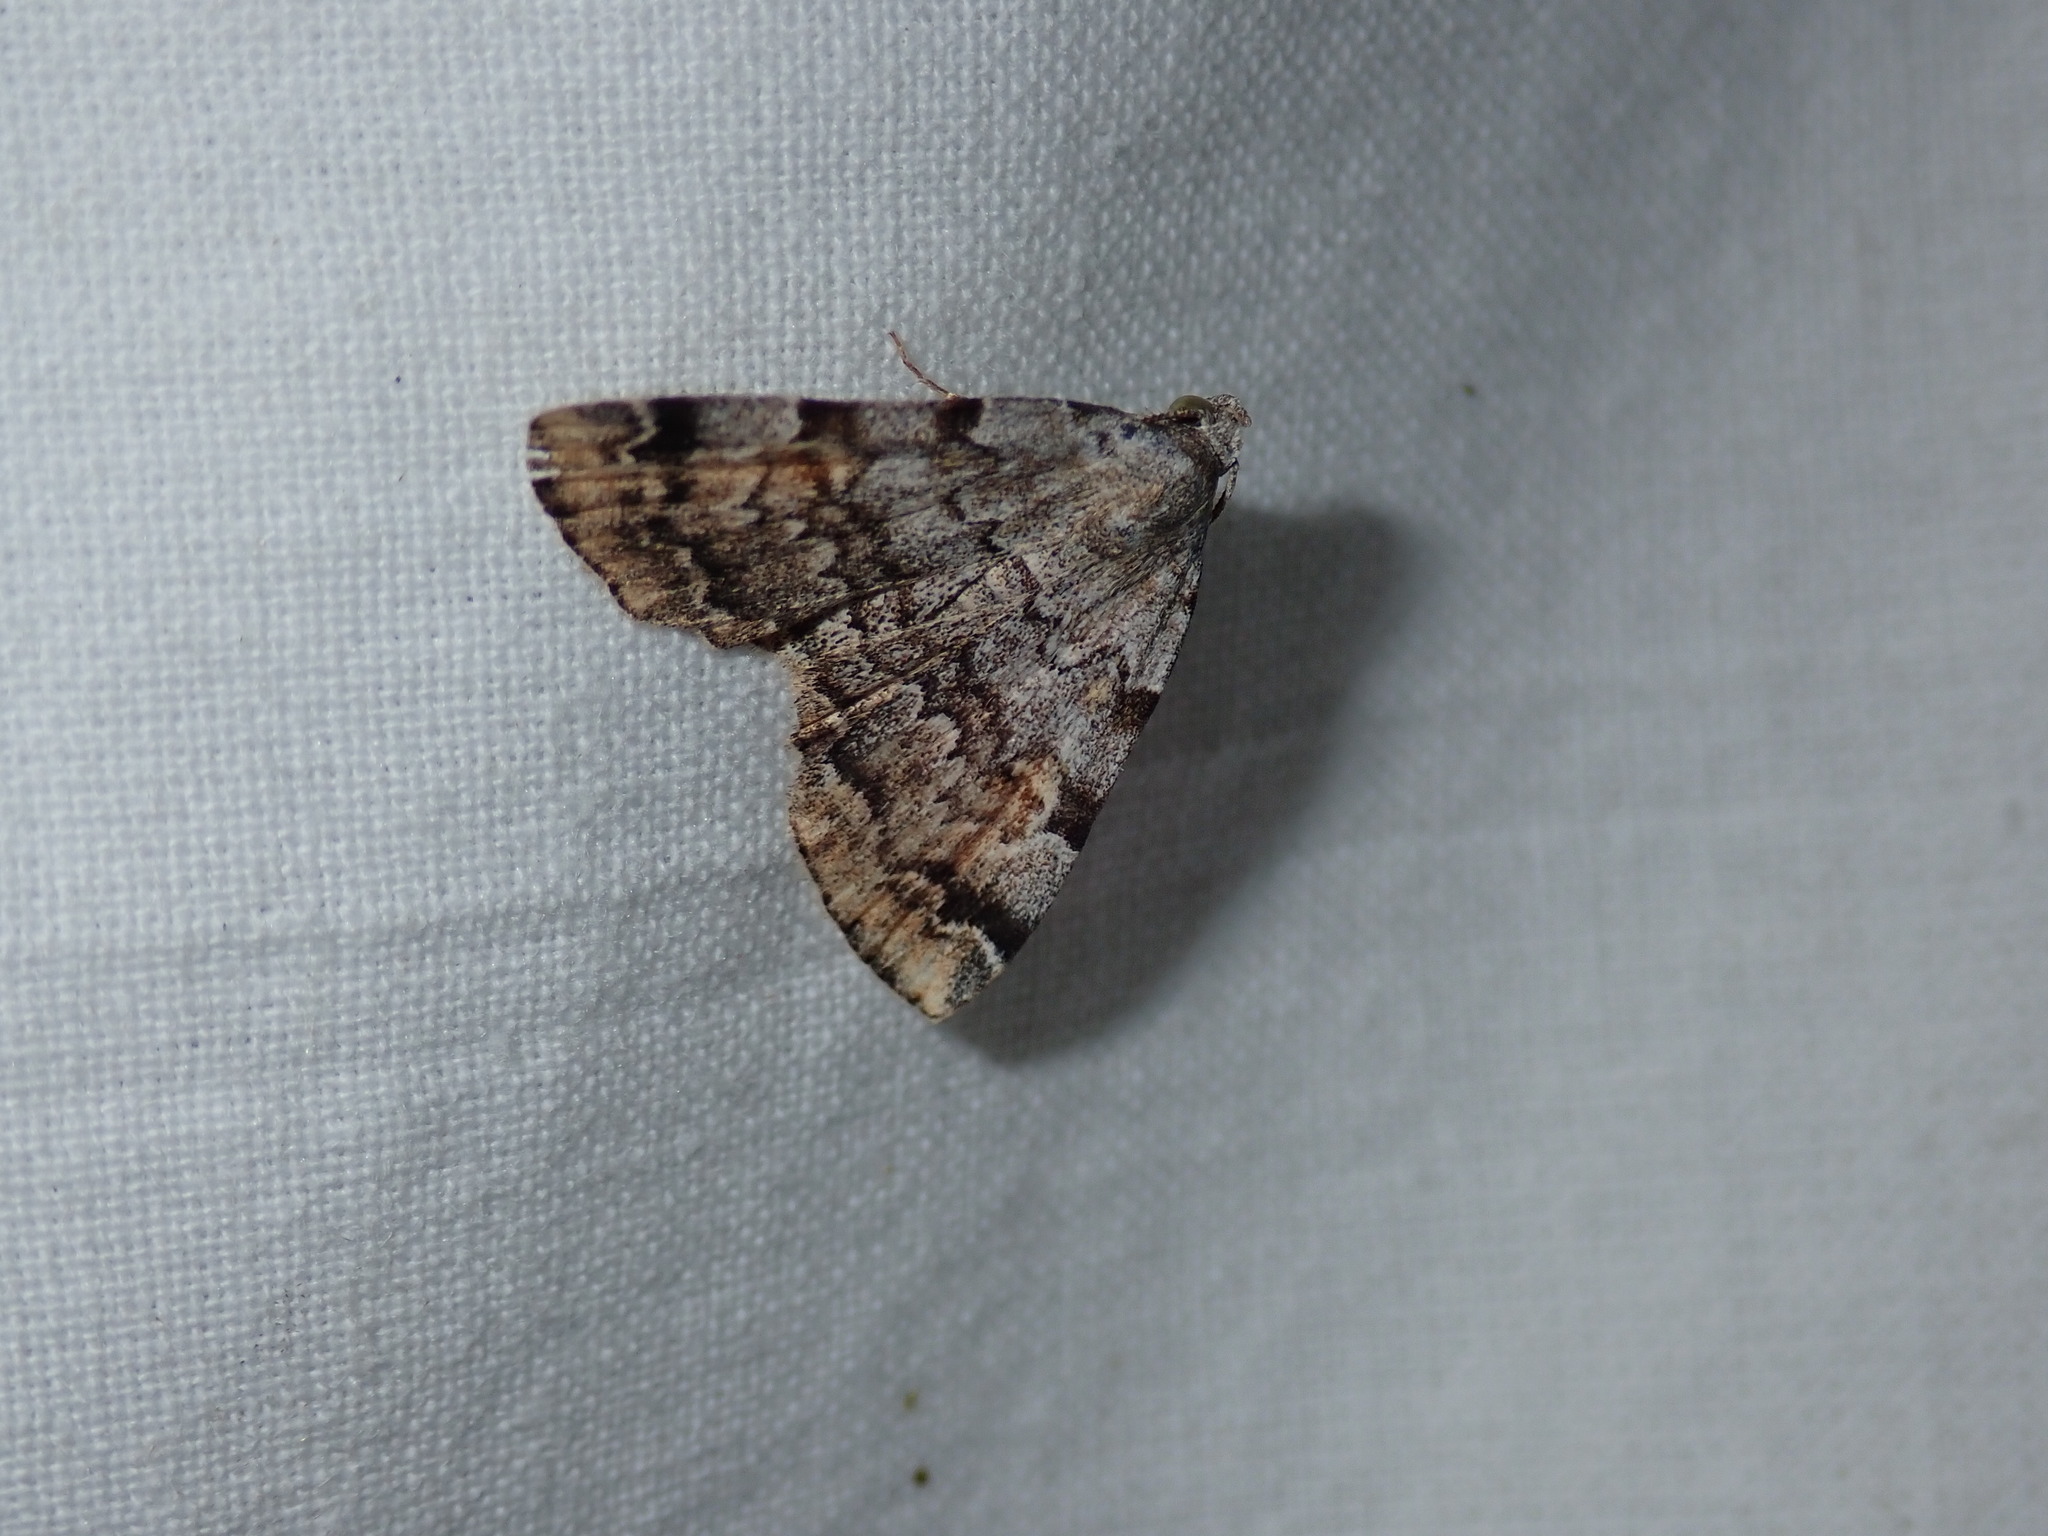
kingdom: Animalia
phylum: Arthropoda
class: Insecta
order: Lepidoptera
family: Erebidae
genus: Idia
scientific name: Idia americalis
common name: American idia moth
